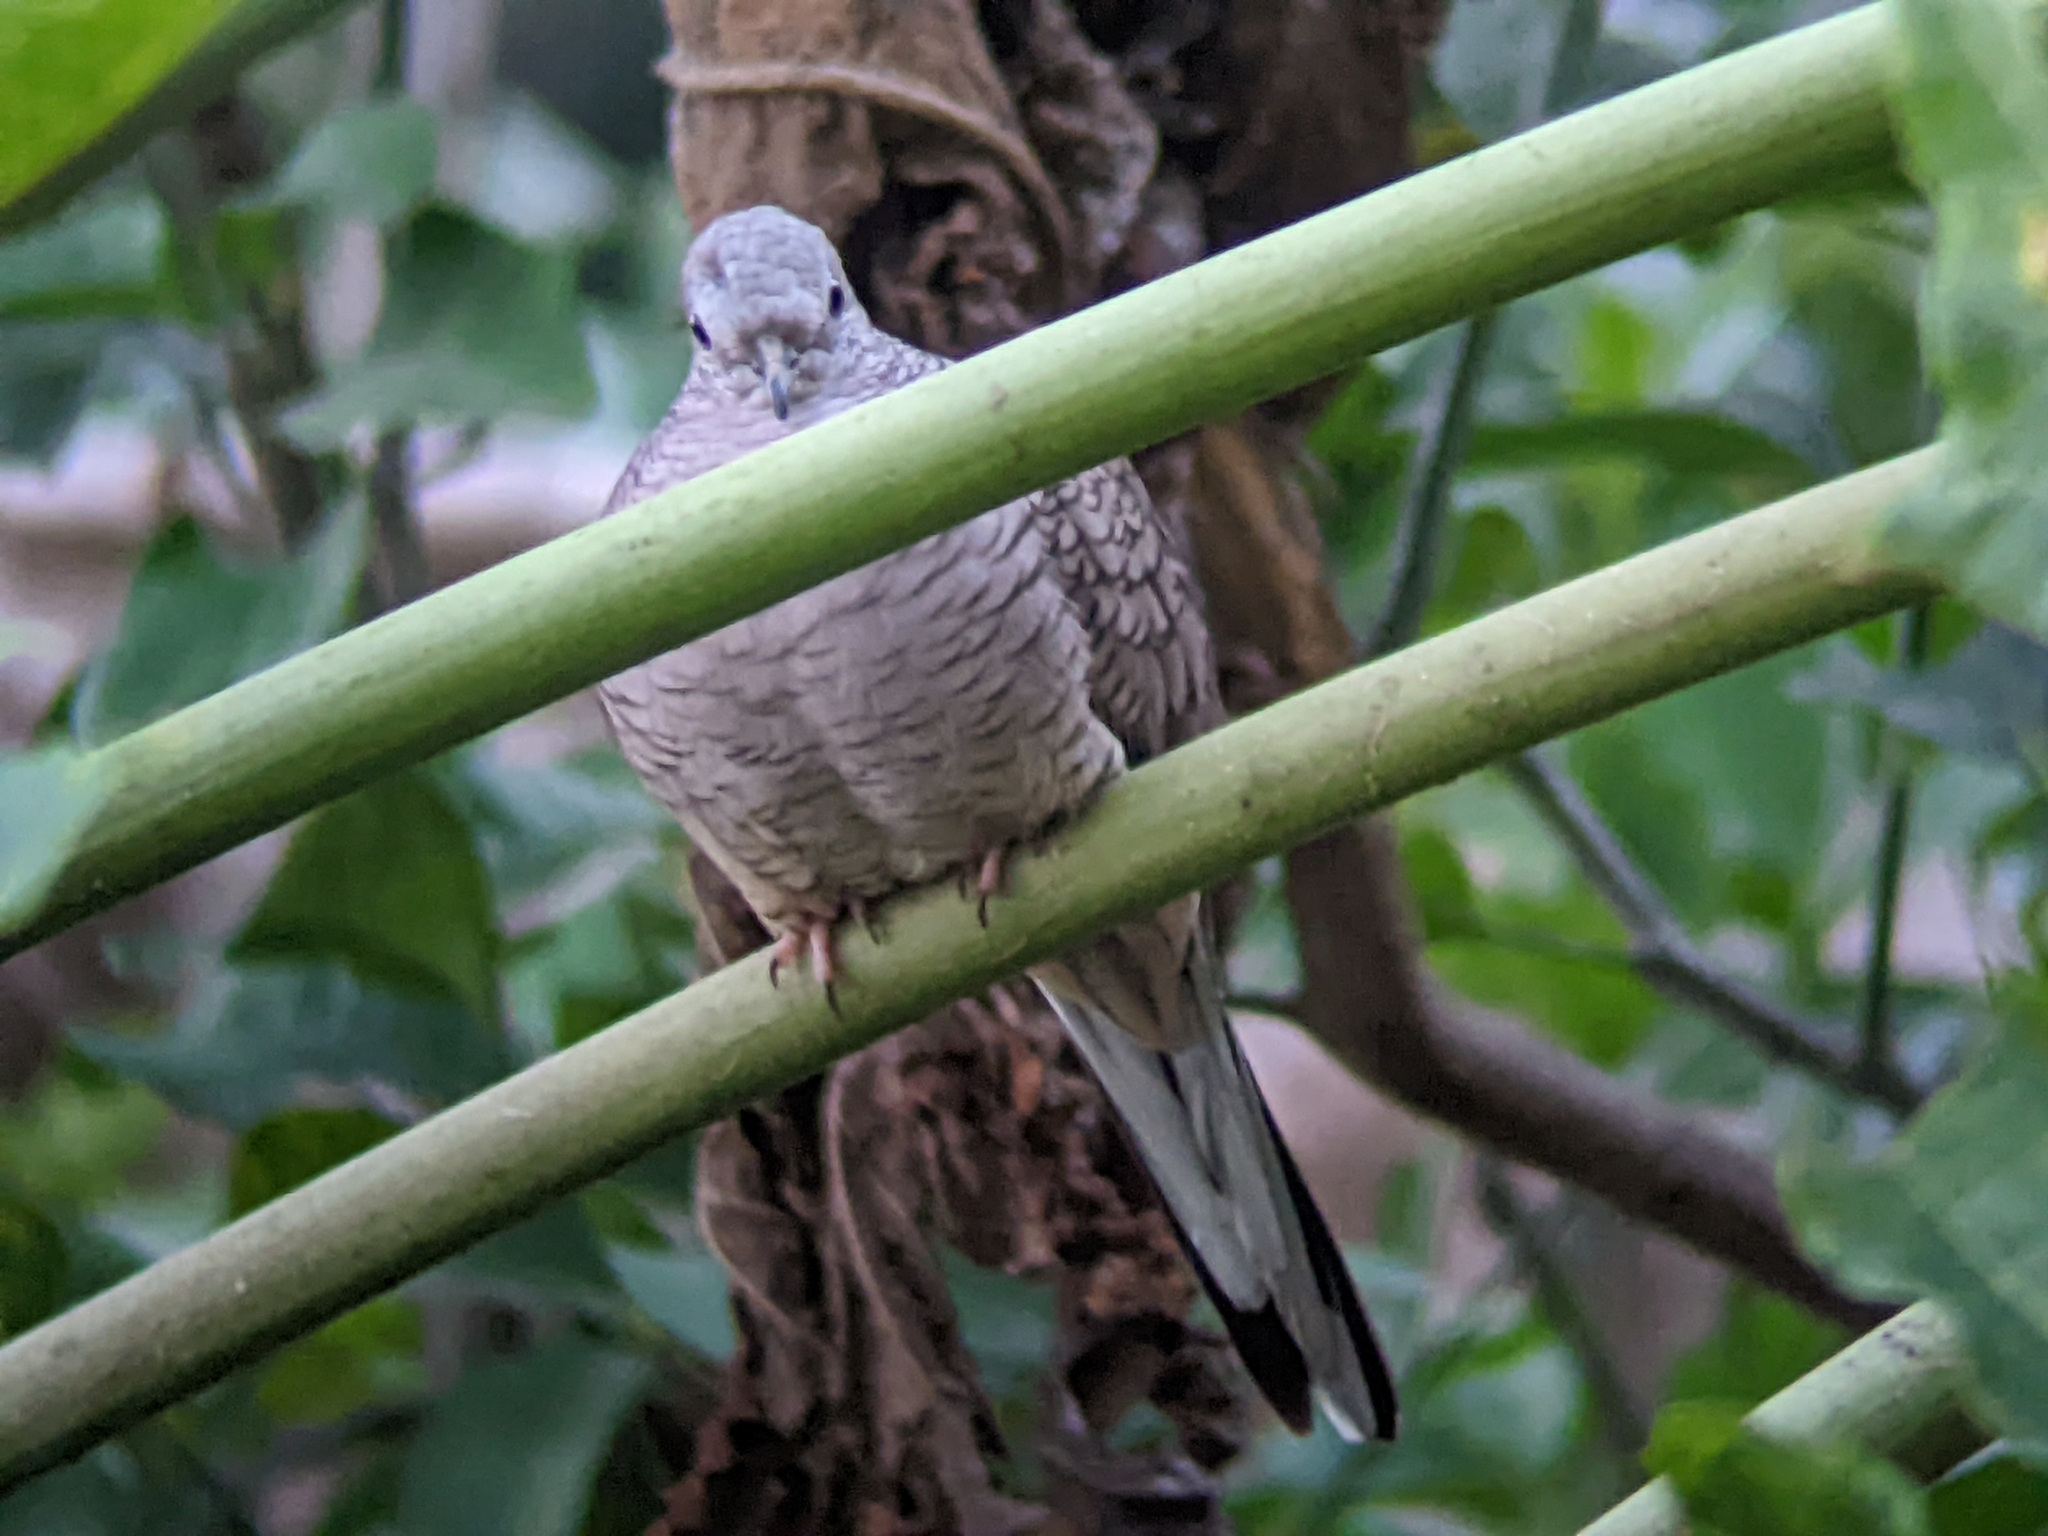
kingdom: Animalia
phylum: Chordata
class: Aves
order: Columbiformes
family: Columbidae
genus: Columbina
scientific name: Columbina inca
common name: Inca dove
